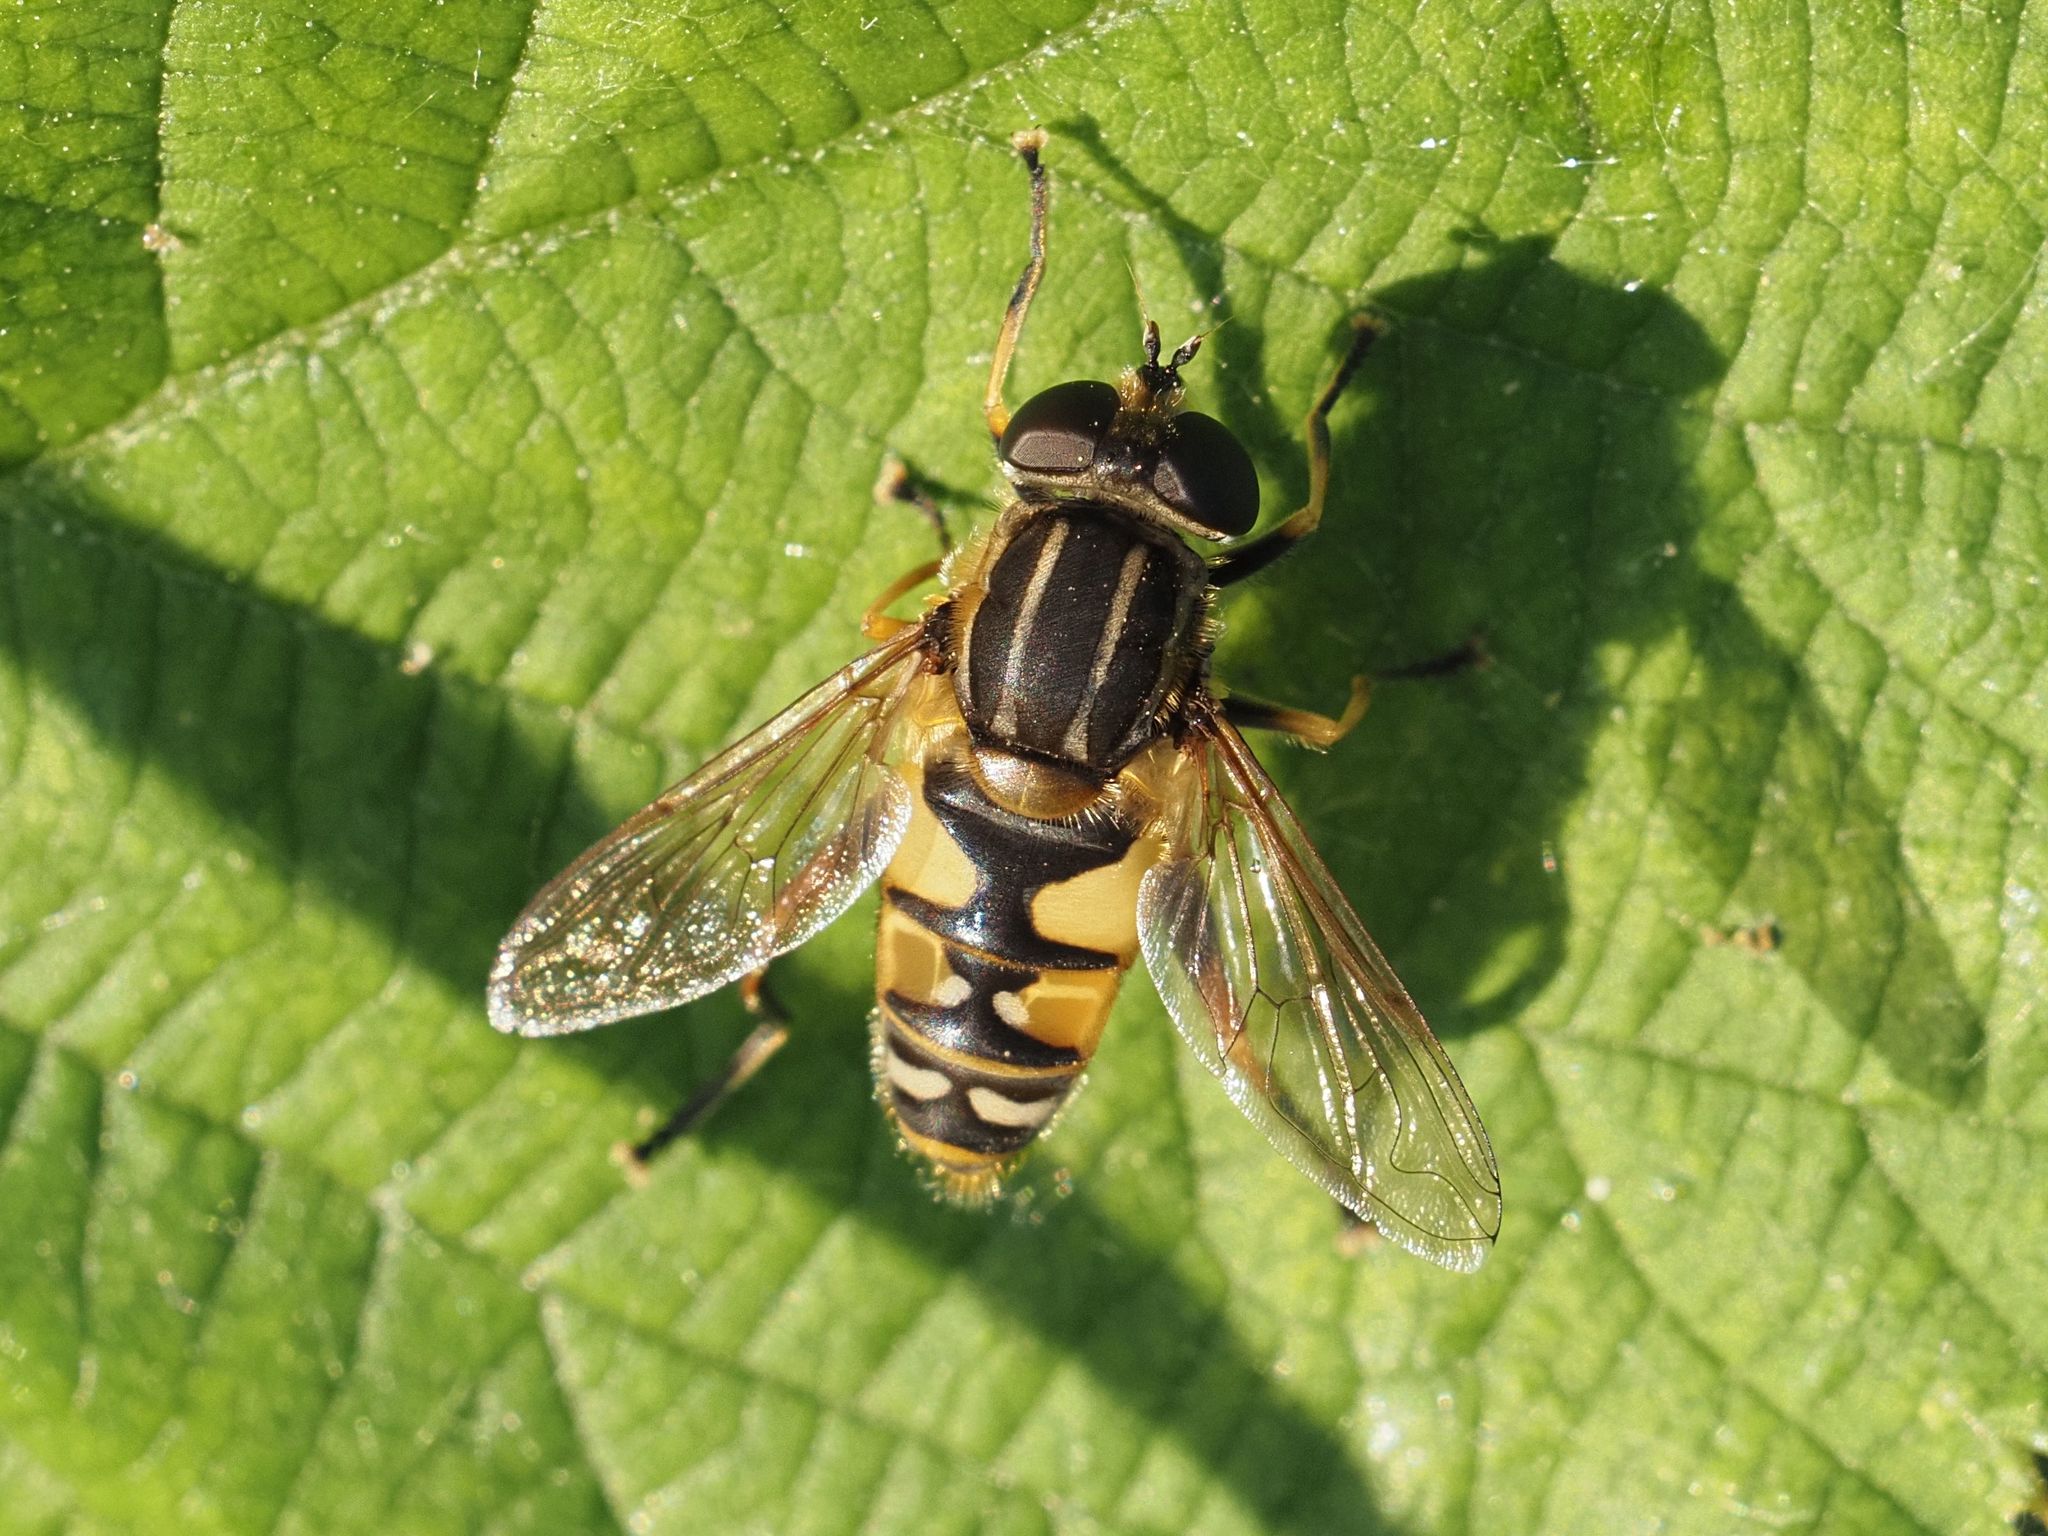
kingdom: Animalia
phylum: Arthropoda
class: Insecta
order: Diptera
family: Syrphidae
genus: Helophilus
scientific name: Helophilus pendulus
